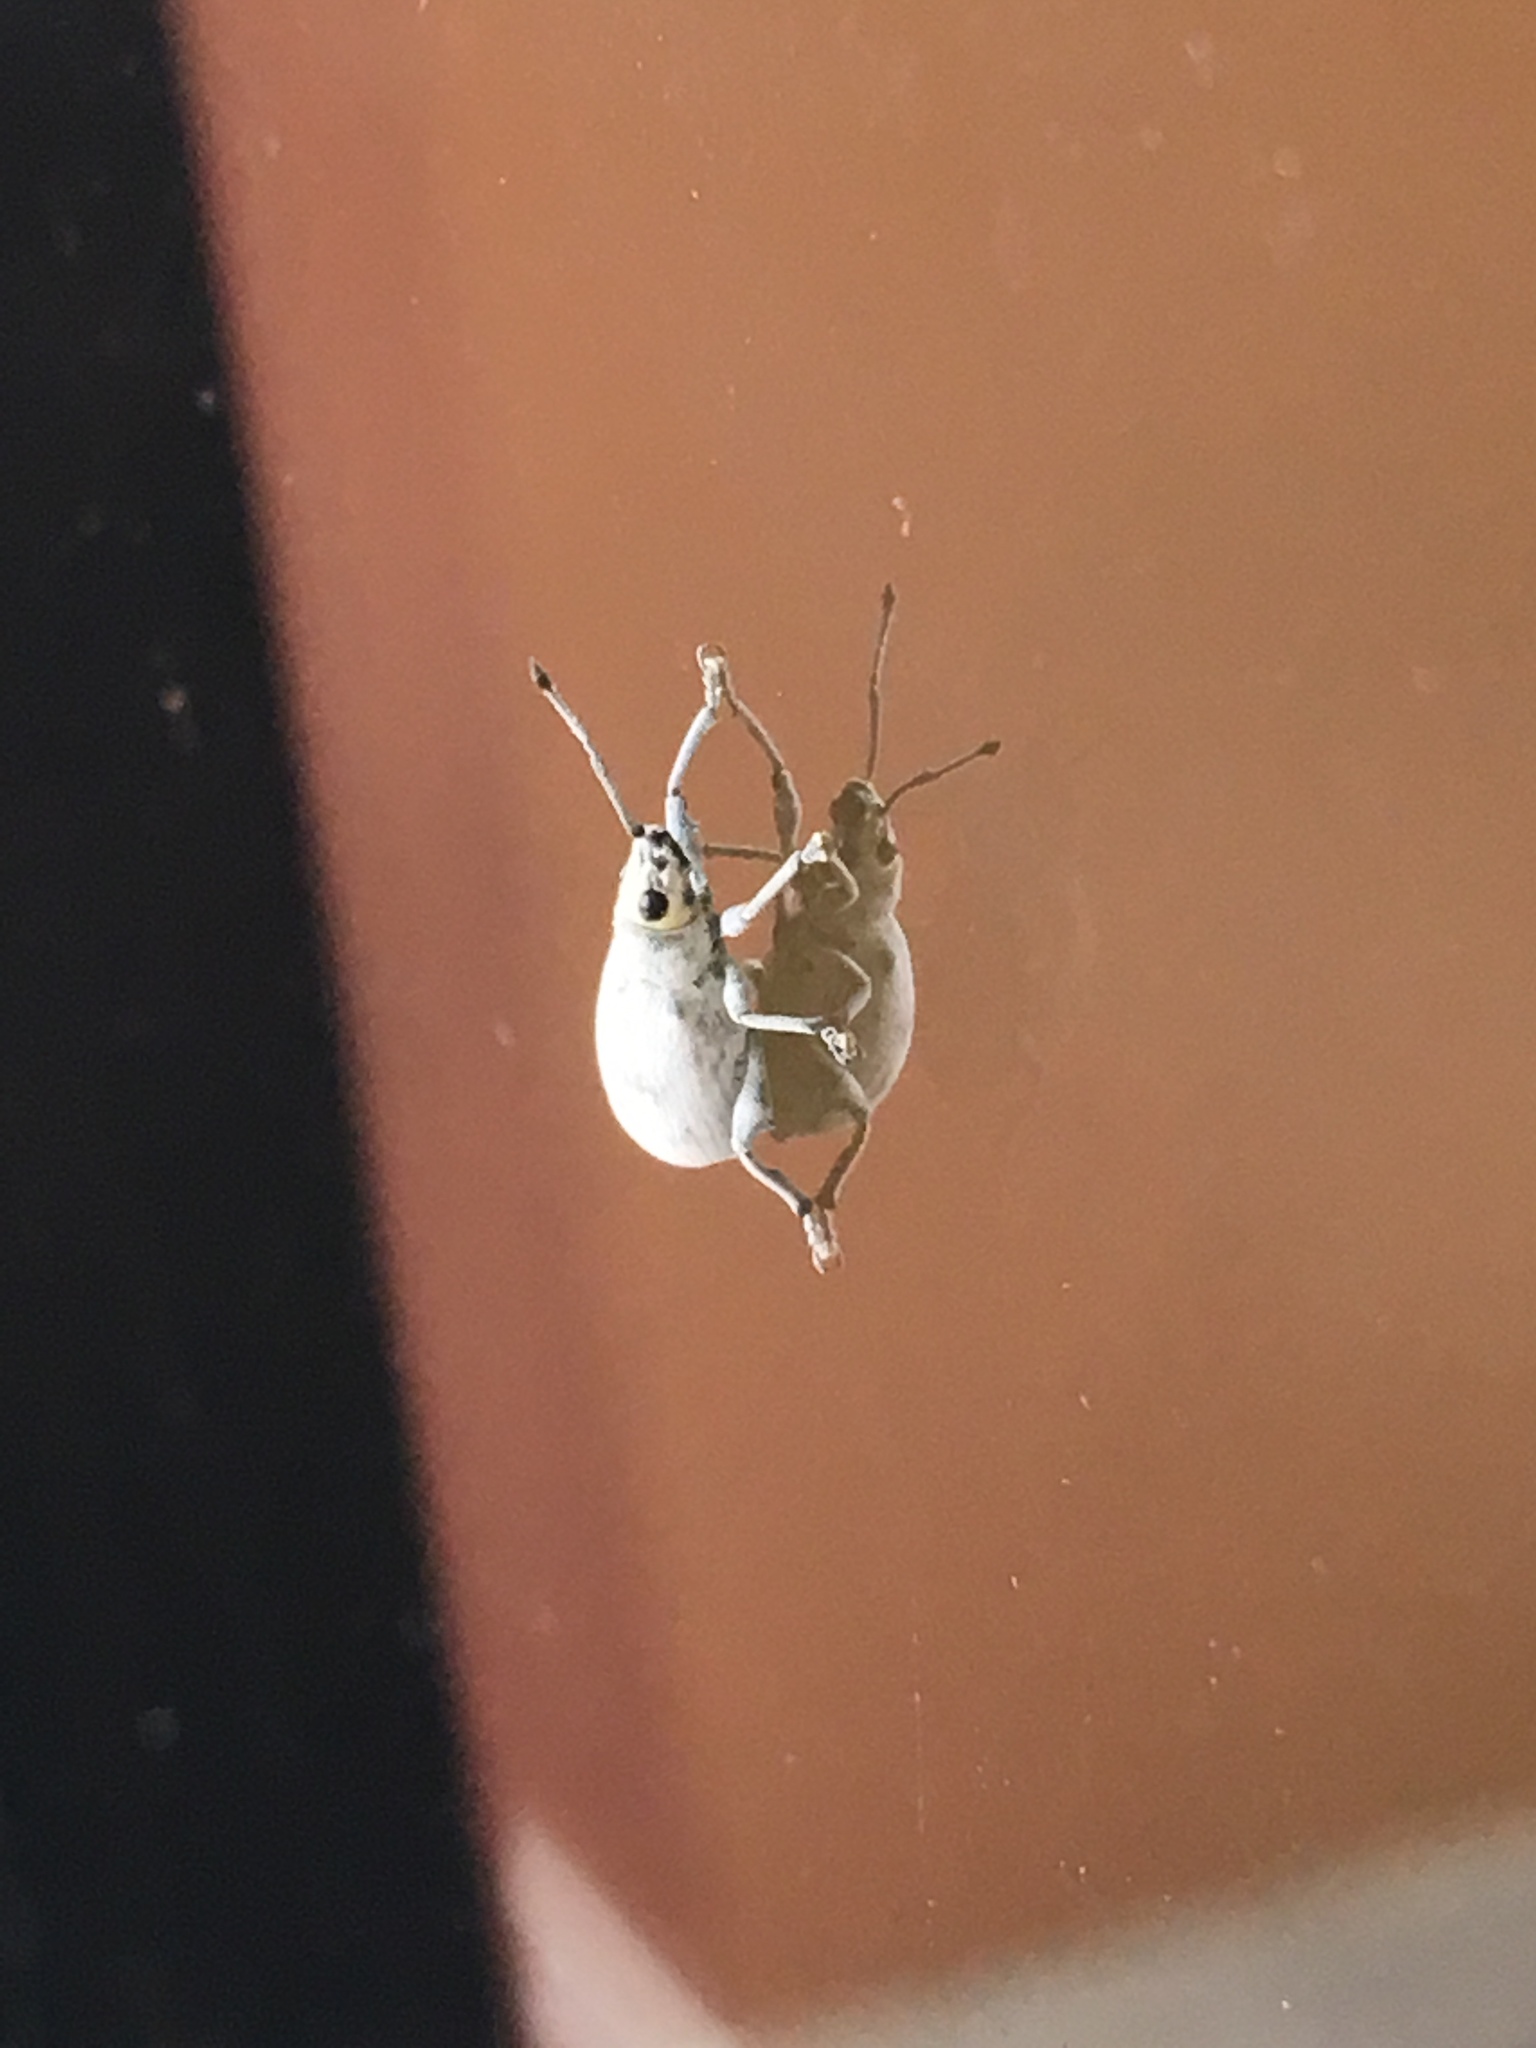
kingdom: Animalia
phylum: Arthropoda
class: Insecta
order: Coleoptera
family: Curculionidae
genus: Myllocerus
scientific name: Myllocerus undecimpustulatus
